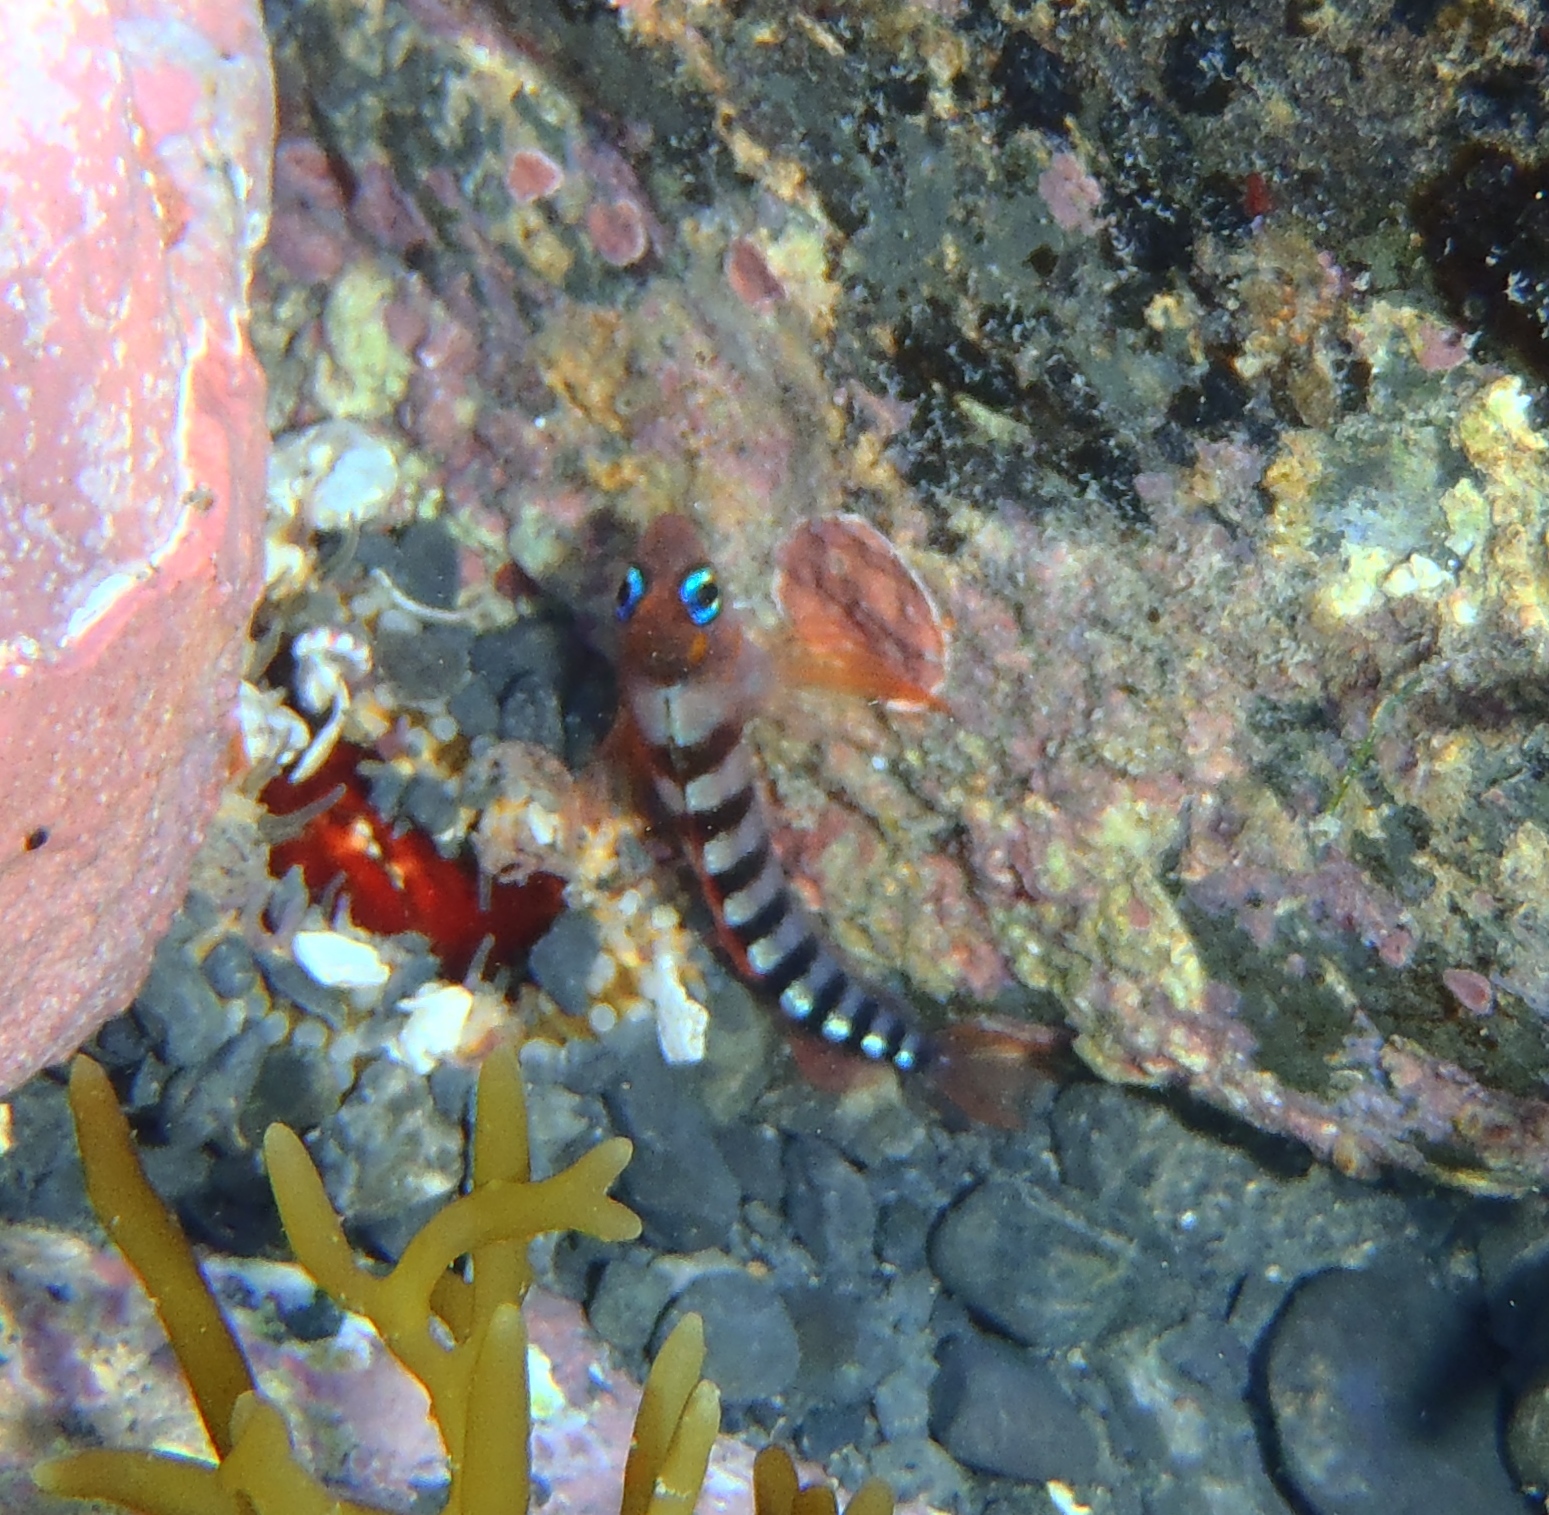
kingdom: Animalia
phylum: Chordata
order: Perciformes
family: Tripterygiidae
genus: Notoclinops
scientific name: Notoclinops segmentatus
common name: Blue-eyed triplefin
